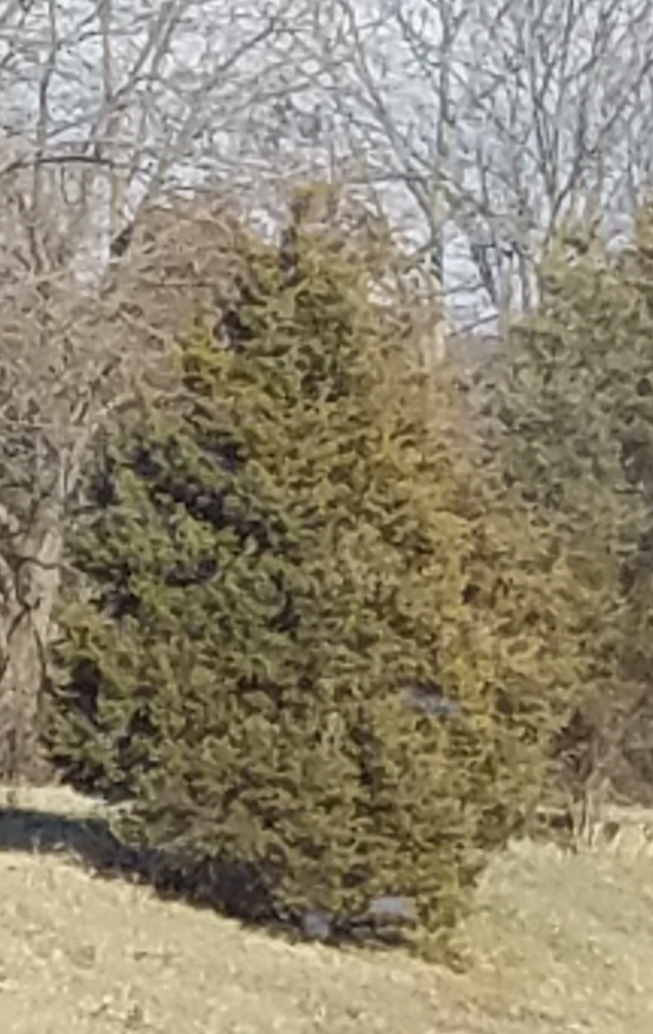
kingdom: Plantae
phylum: Tracheophyta
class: Pinopsida
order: Pinales
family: Cupressaceae
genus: Juniperus
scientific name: Juniperus virginiana
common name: Red juniper
